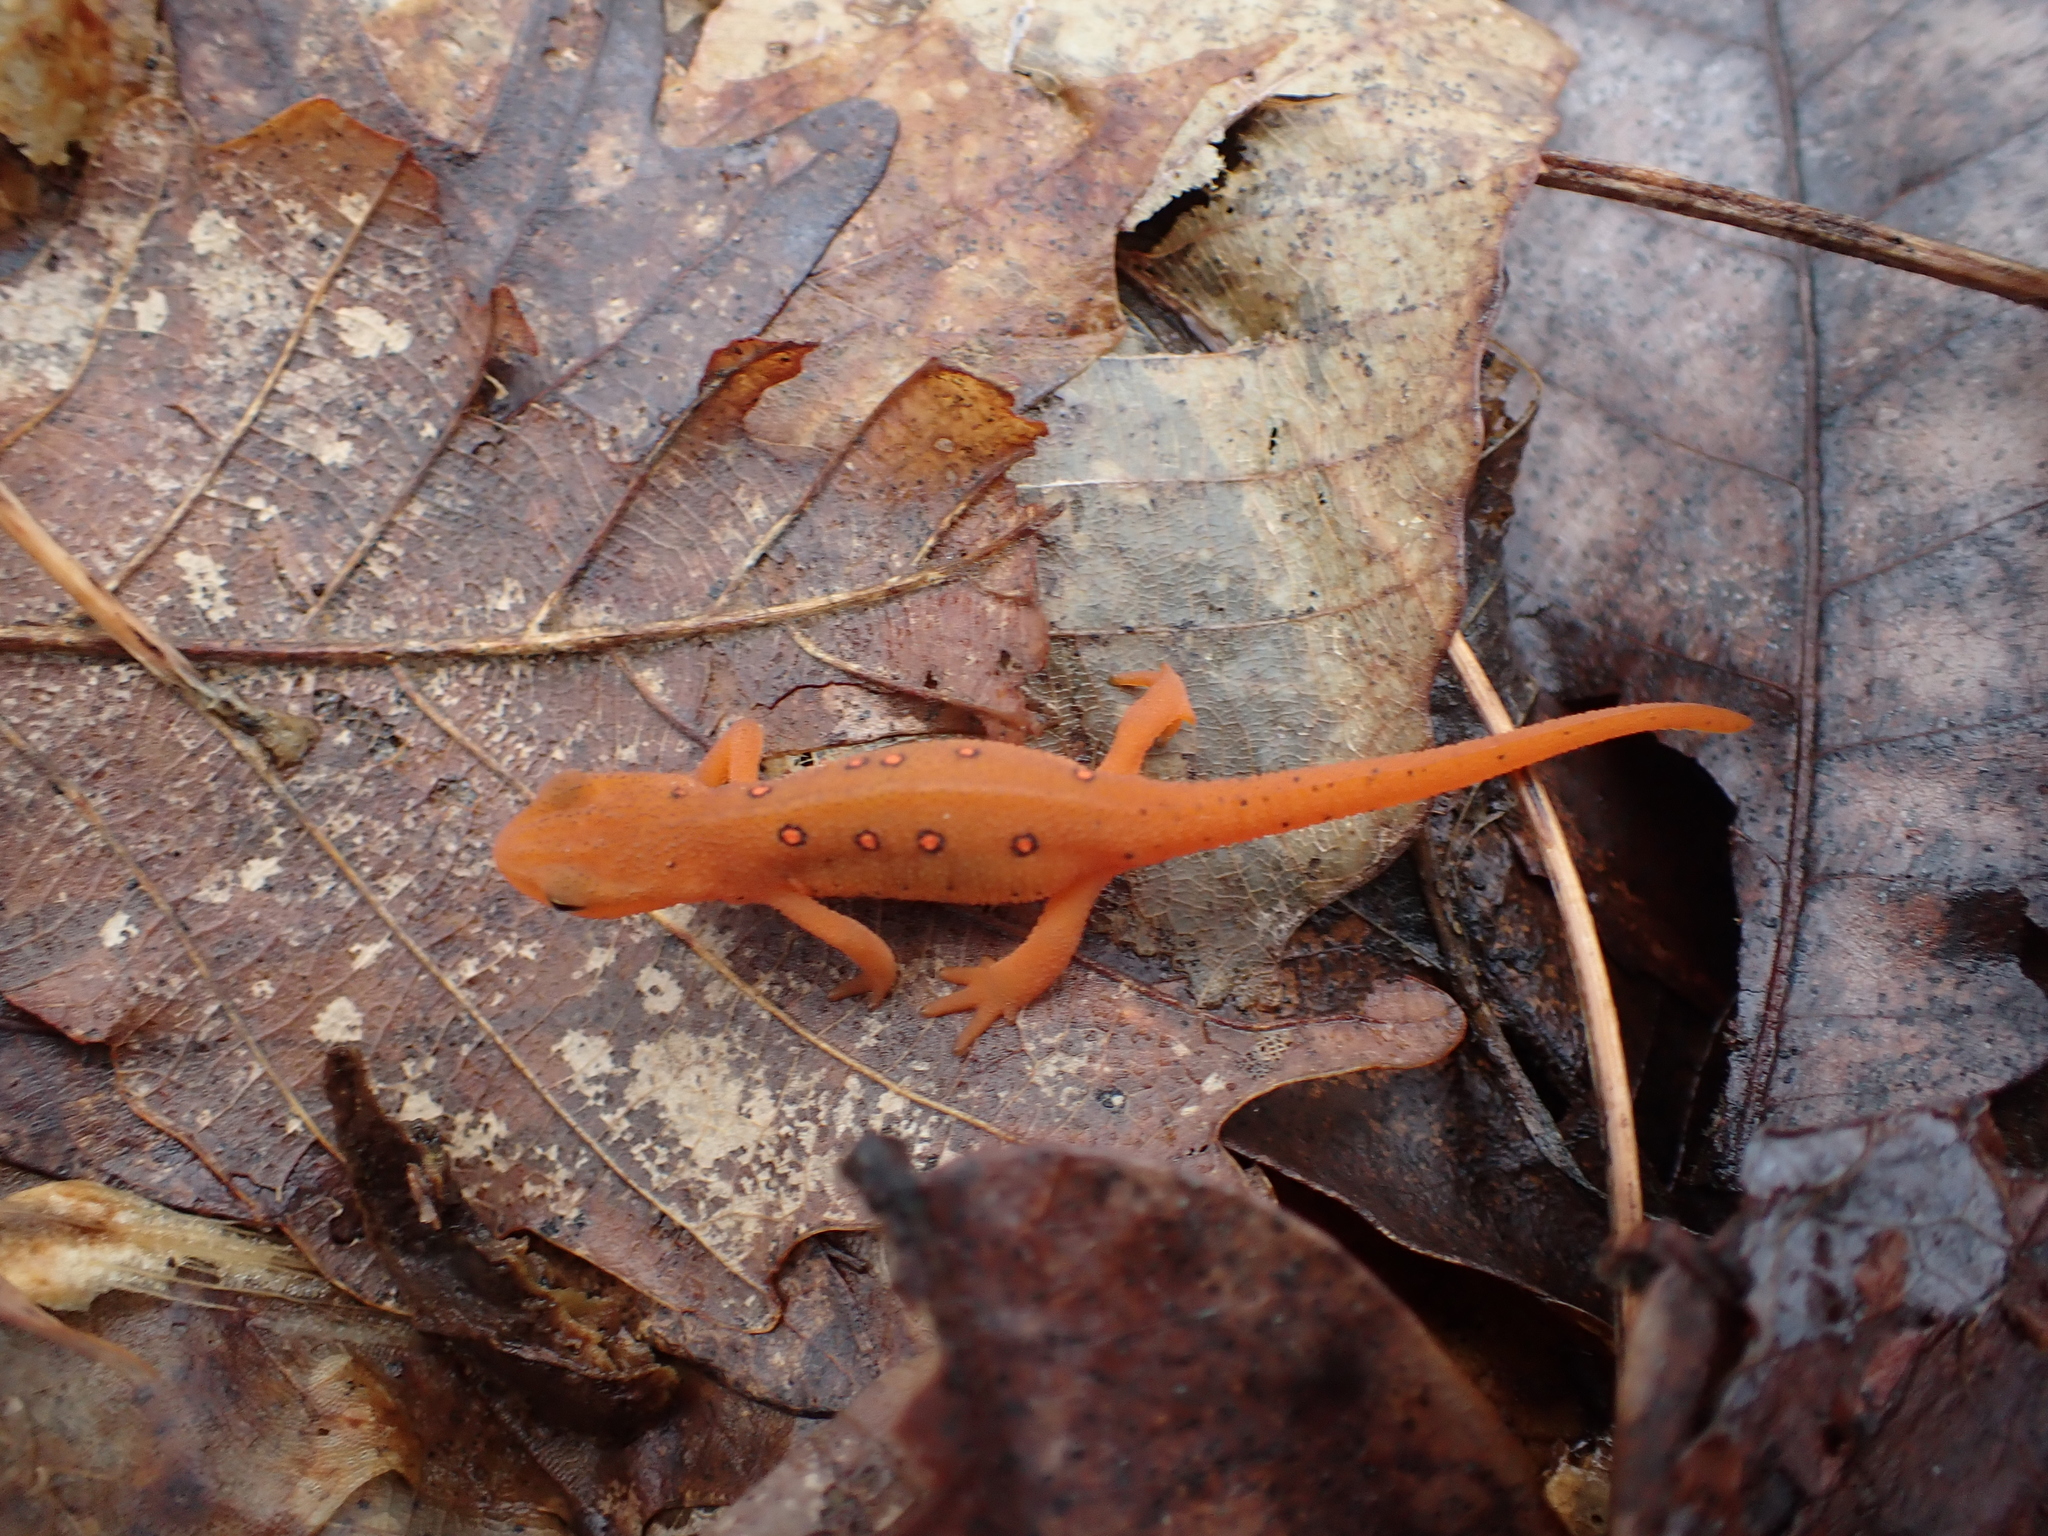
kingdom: Animalia
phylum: Chordata
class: Amphibia
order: Caudata
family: Salamandridae
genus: Notophthalmus
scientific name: Notophthalmus viridescens
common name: Eastern newt
